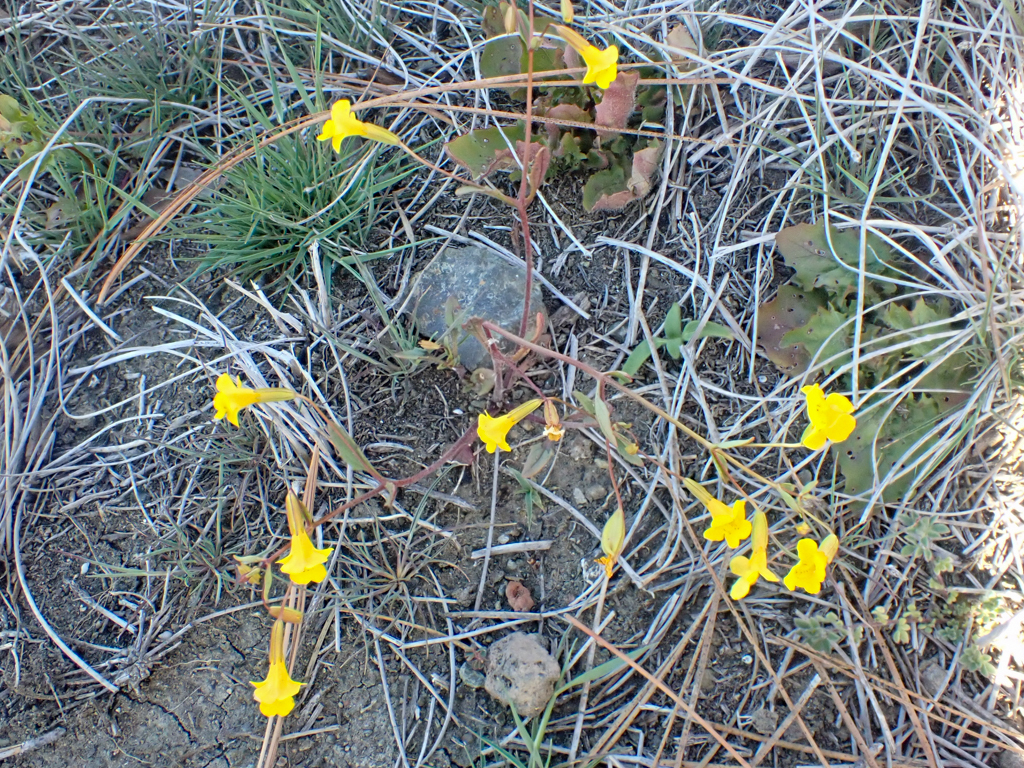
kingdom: Plantae
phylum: Tracheophyta
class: Magnoliopsida
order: Lamiales
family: Phrymaceae
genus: Erythranthe
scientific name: Erythranthe nudata
